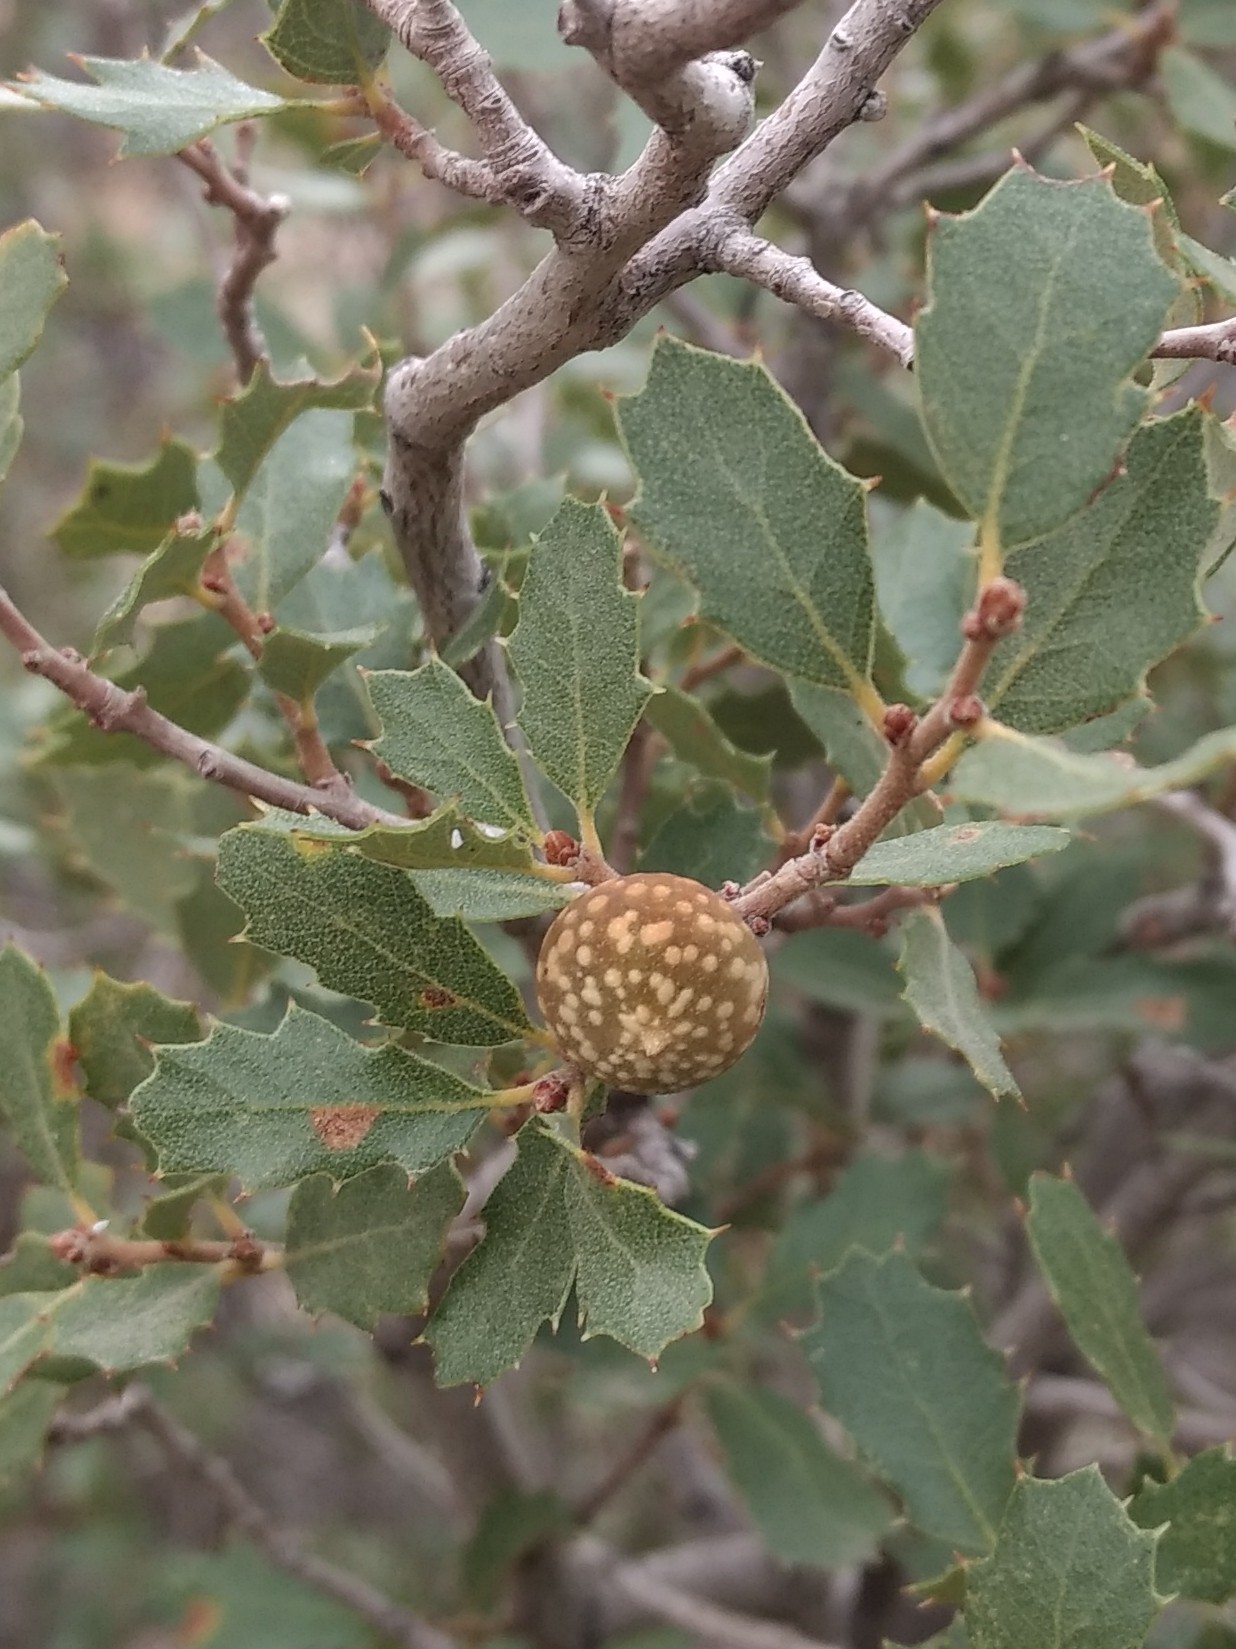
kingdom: Animalia
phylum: Arthropoda
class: Insecta
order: Hymenoptera
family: Cynipidae
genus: Burnettweldia
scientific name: Burnettweldia
